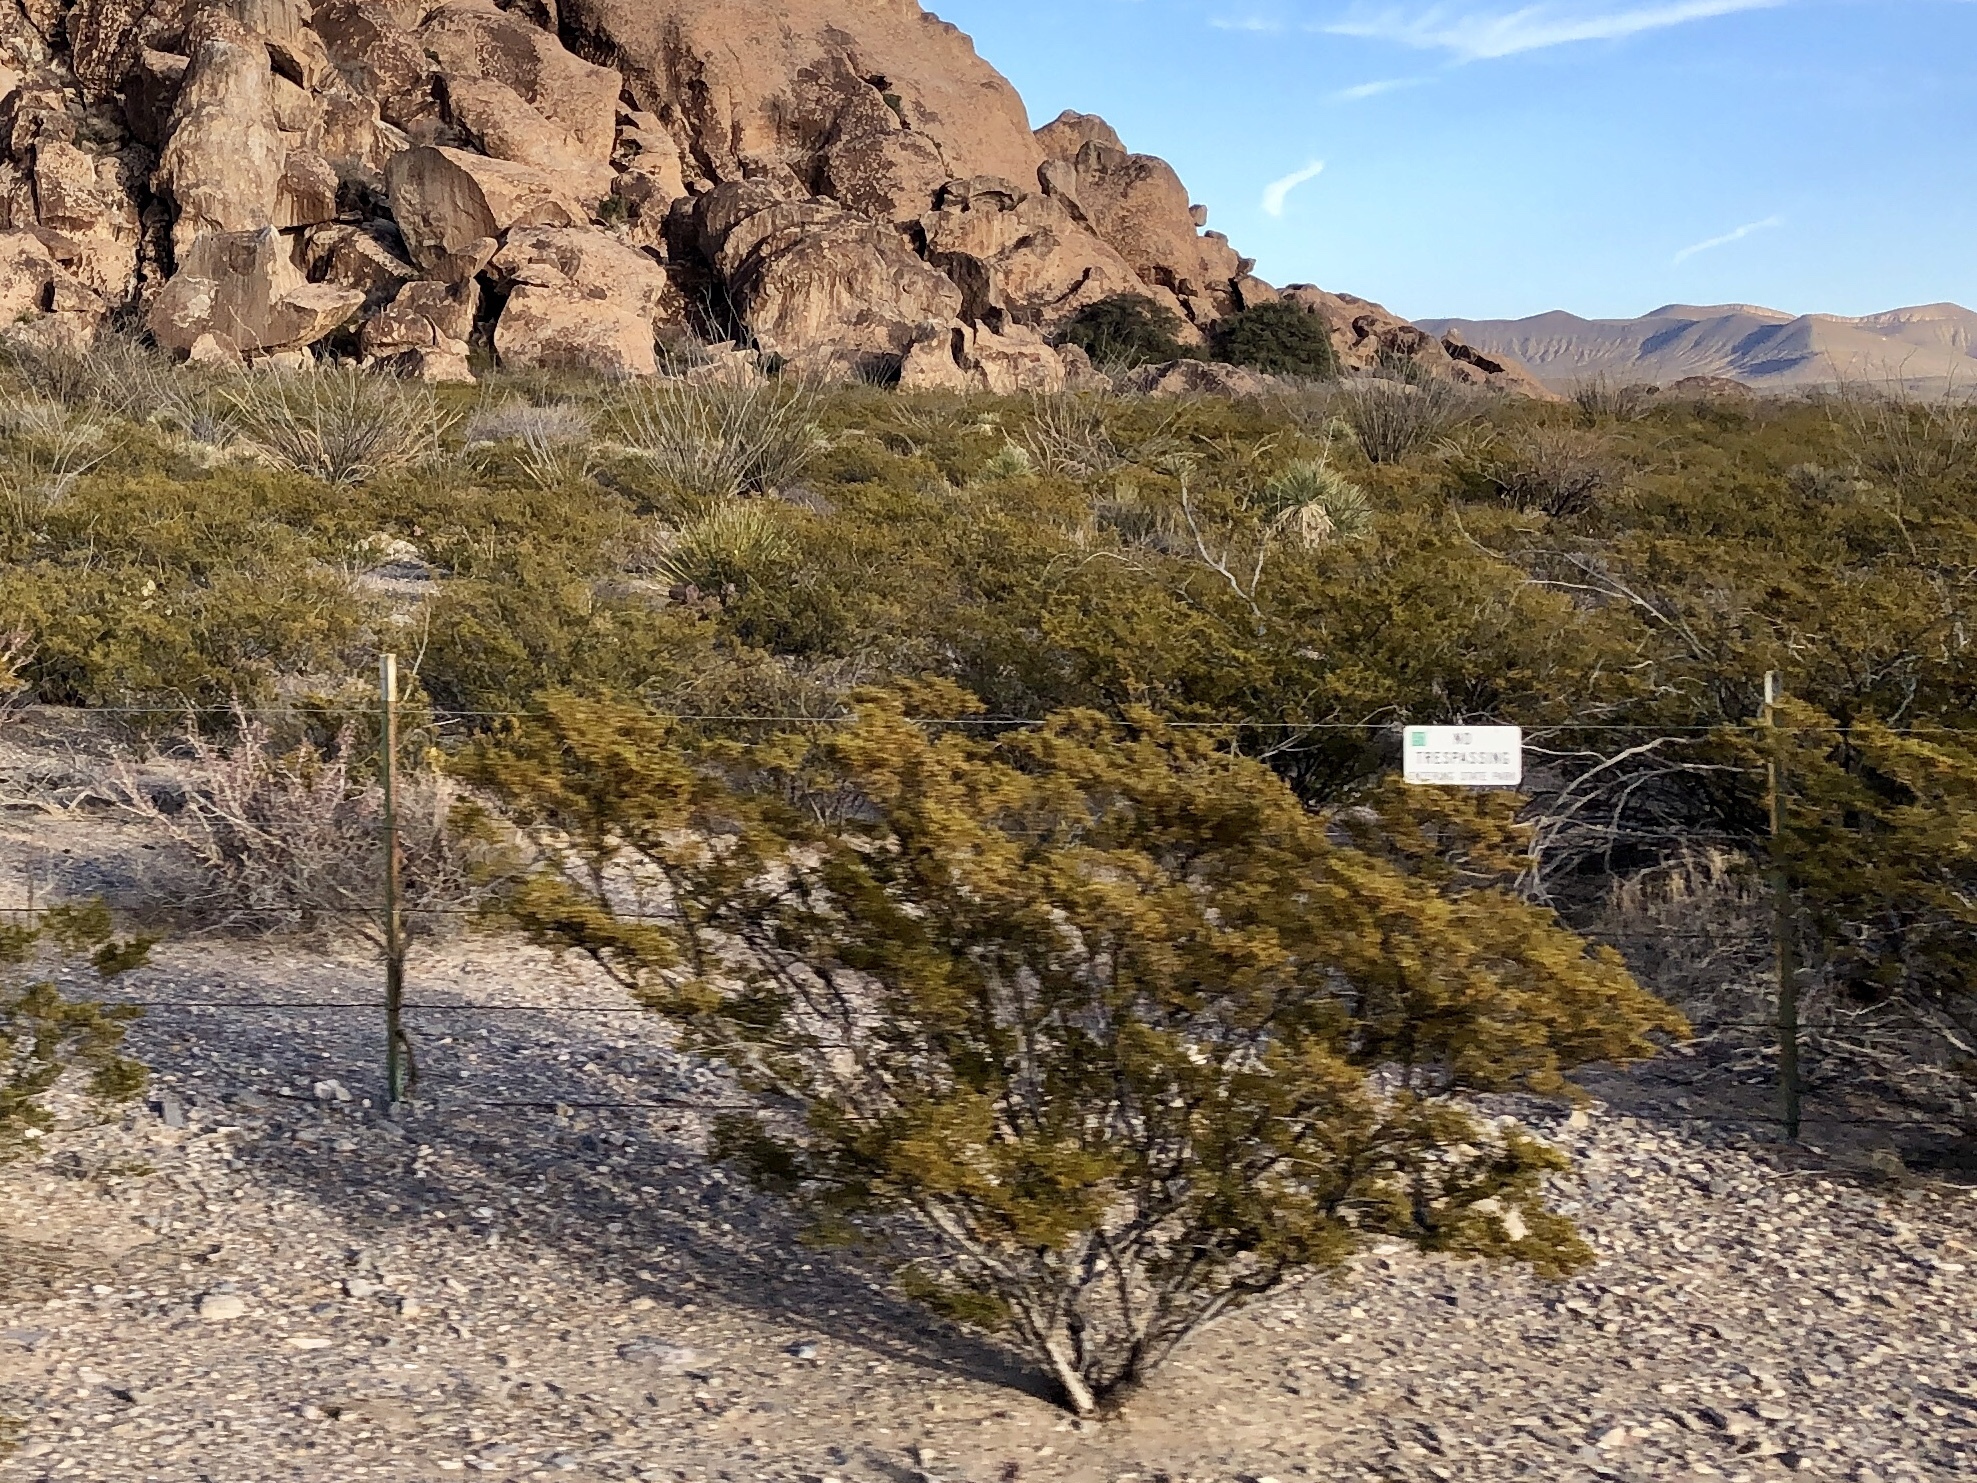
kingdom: Plantae
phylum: Tracheophyta
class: Magnoliopsida
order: Zygophyllales
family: Zygophyllaceae
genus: Larrea
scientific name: Larrea tridentata
